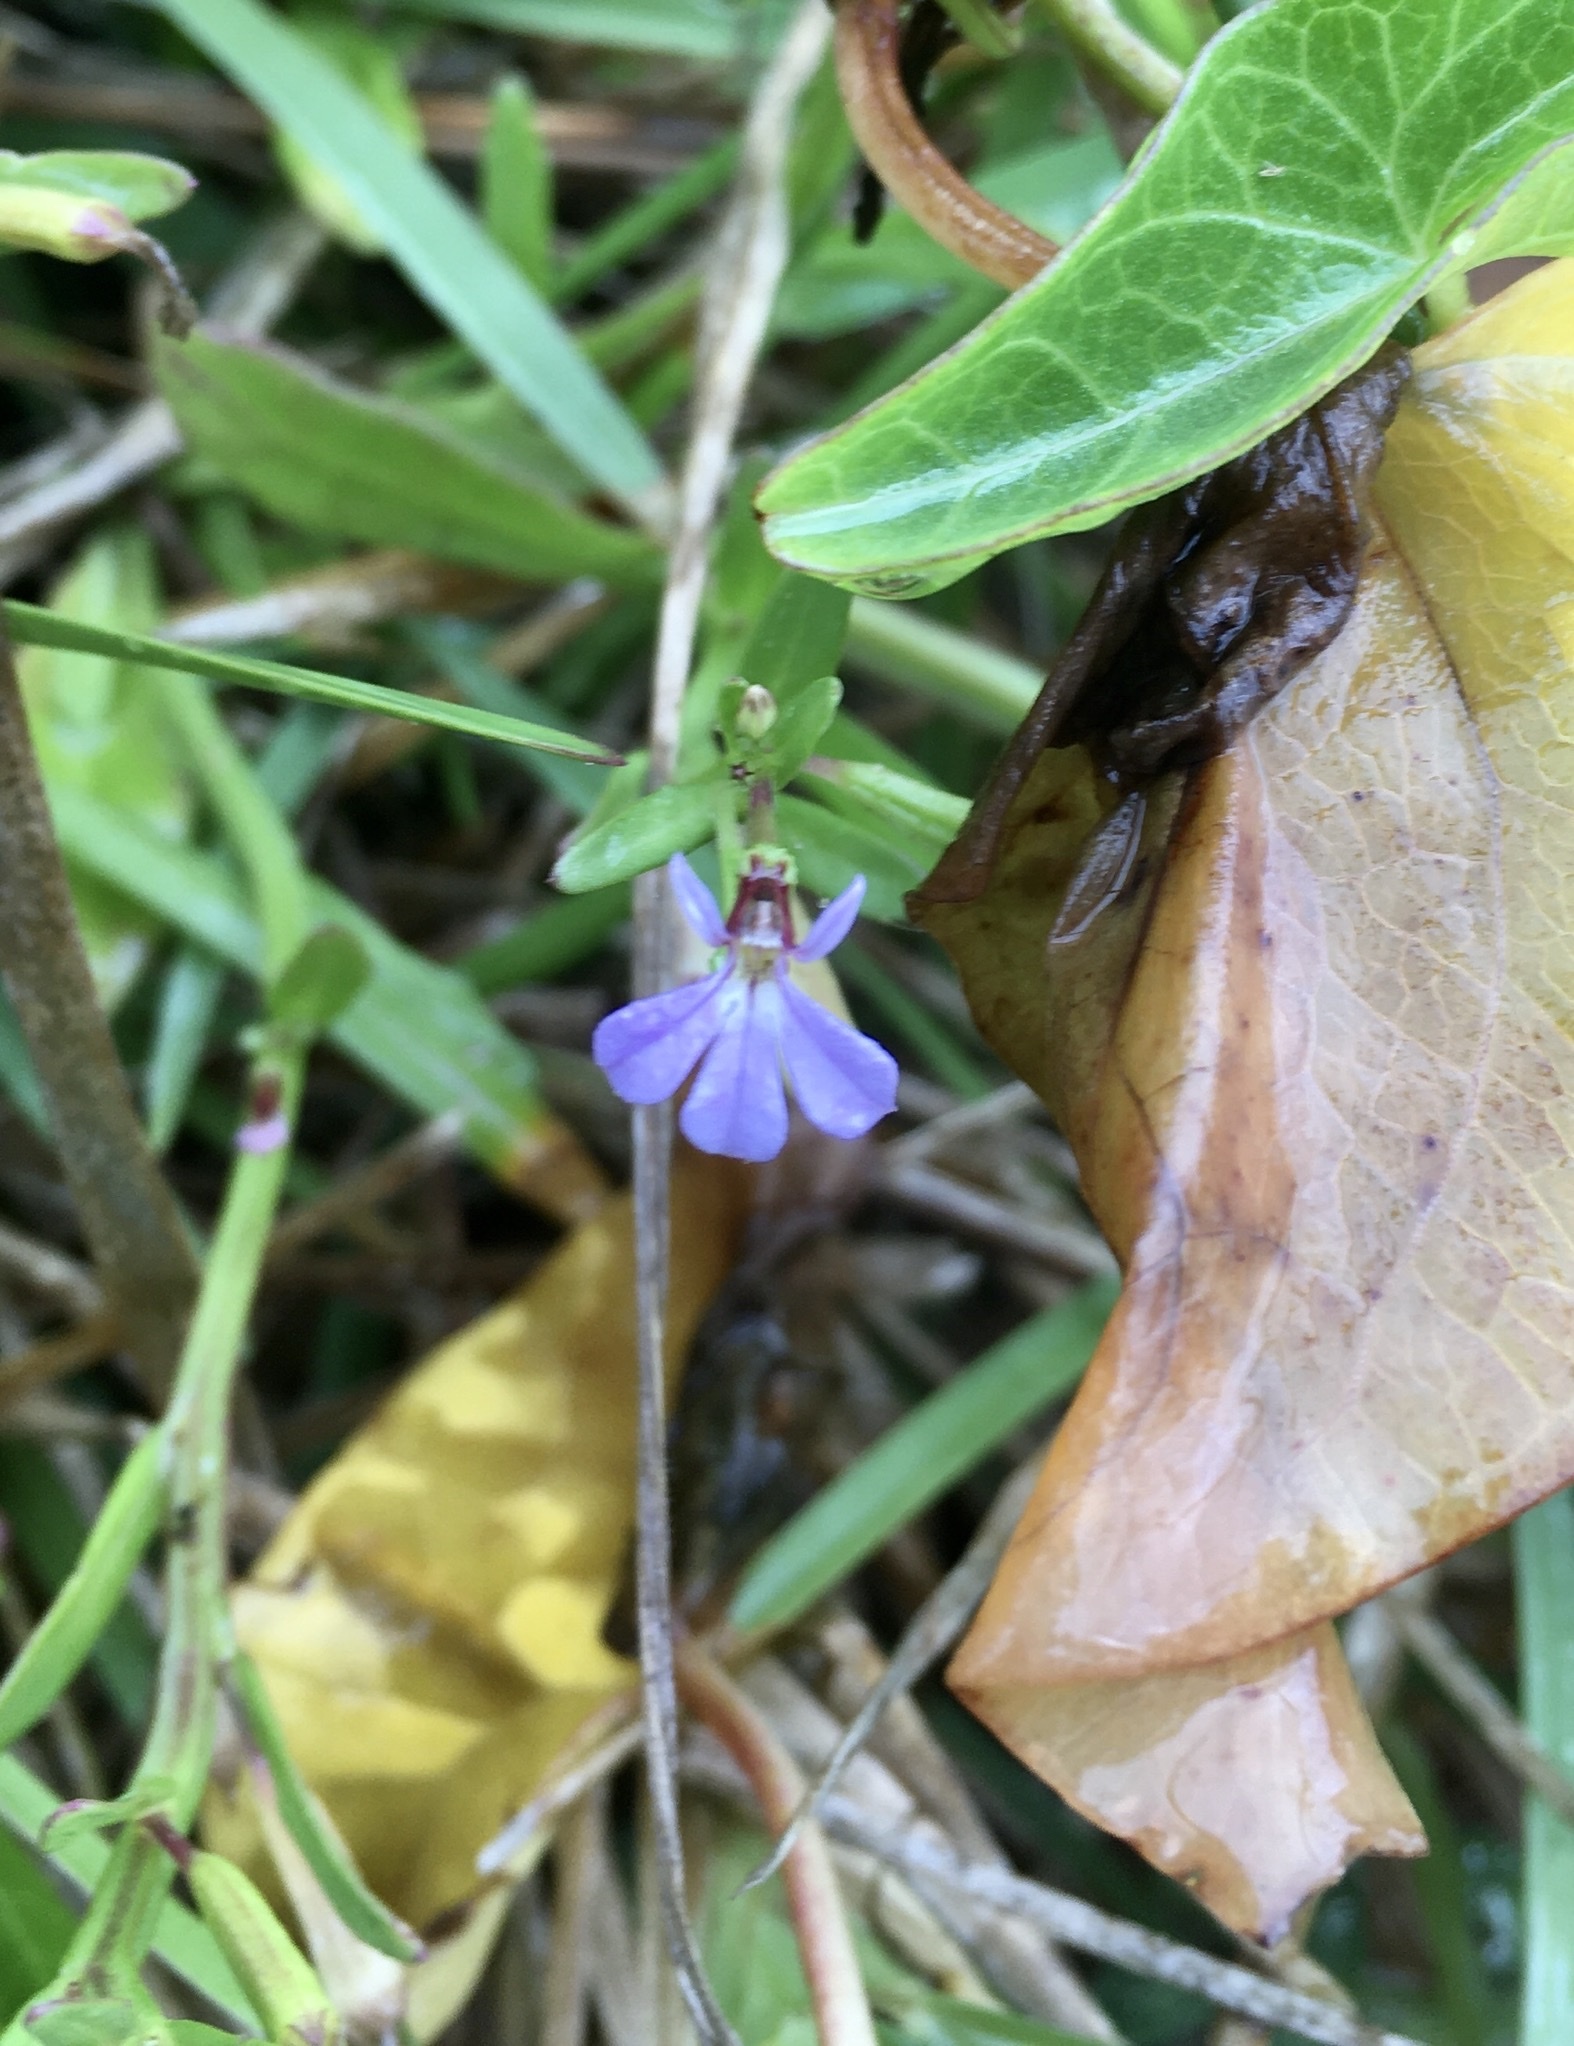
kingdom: Plantae
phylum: Tracheophyta
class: Magnoliopsida
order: Asterales
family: Campanulaceae
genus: Lobelia
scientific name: Lobelia anceps
